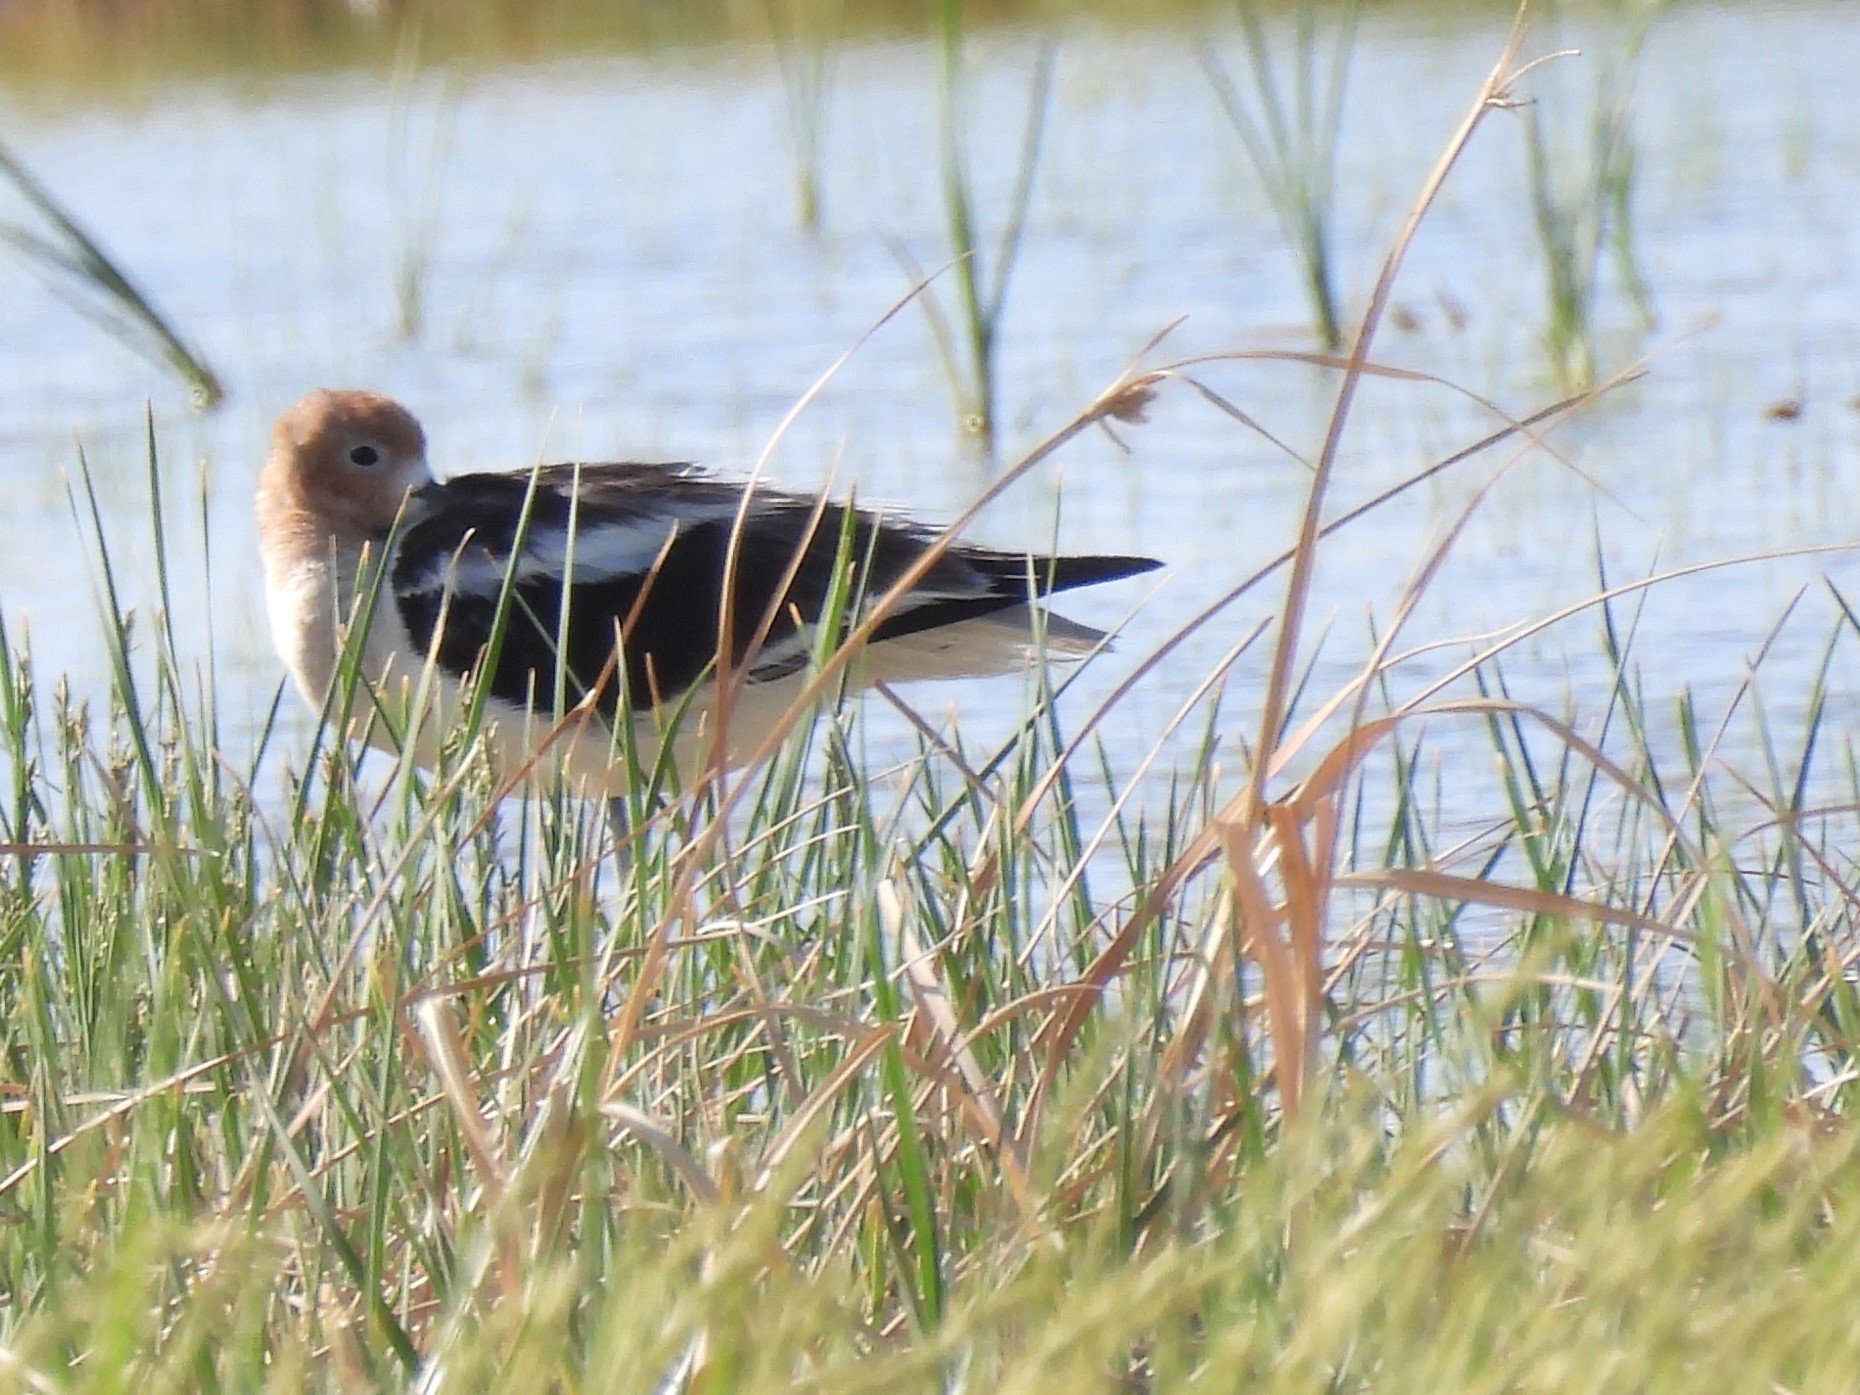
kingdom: Animalia
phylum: Chordata
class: Aves
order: Charadriiformes
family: Recurvirostridae
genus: Recurvirostra
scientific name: Recurvirostra americana
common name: American avocet
